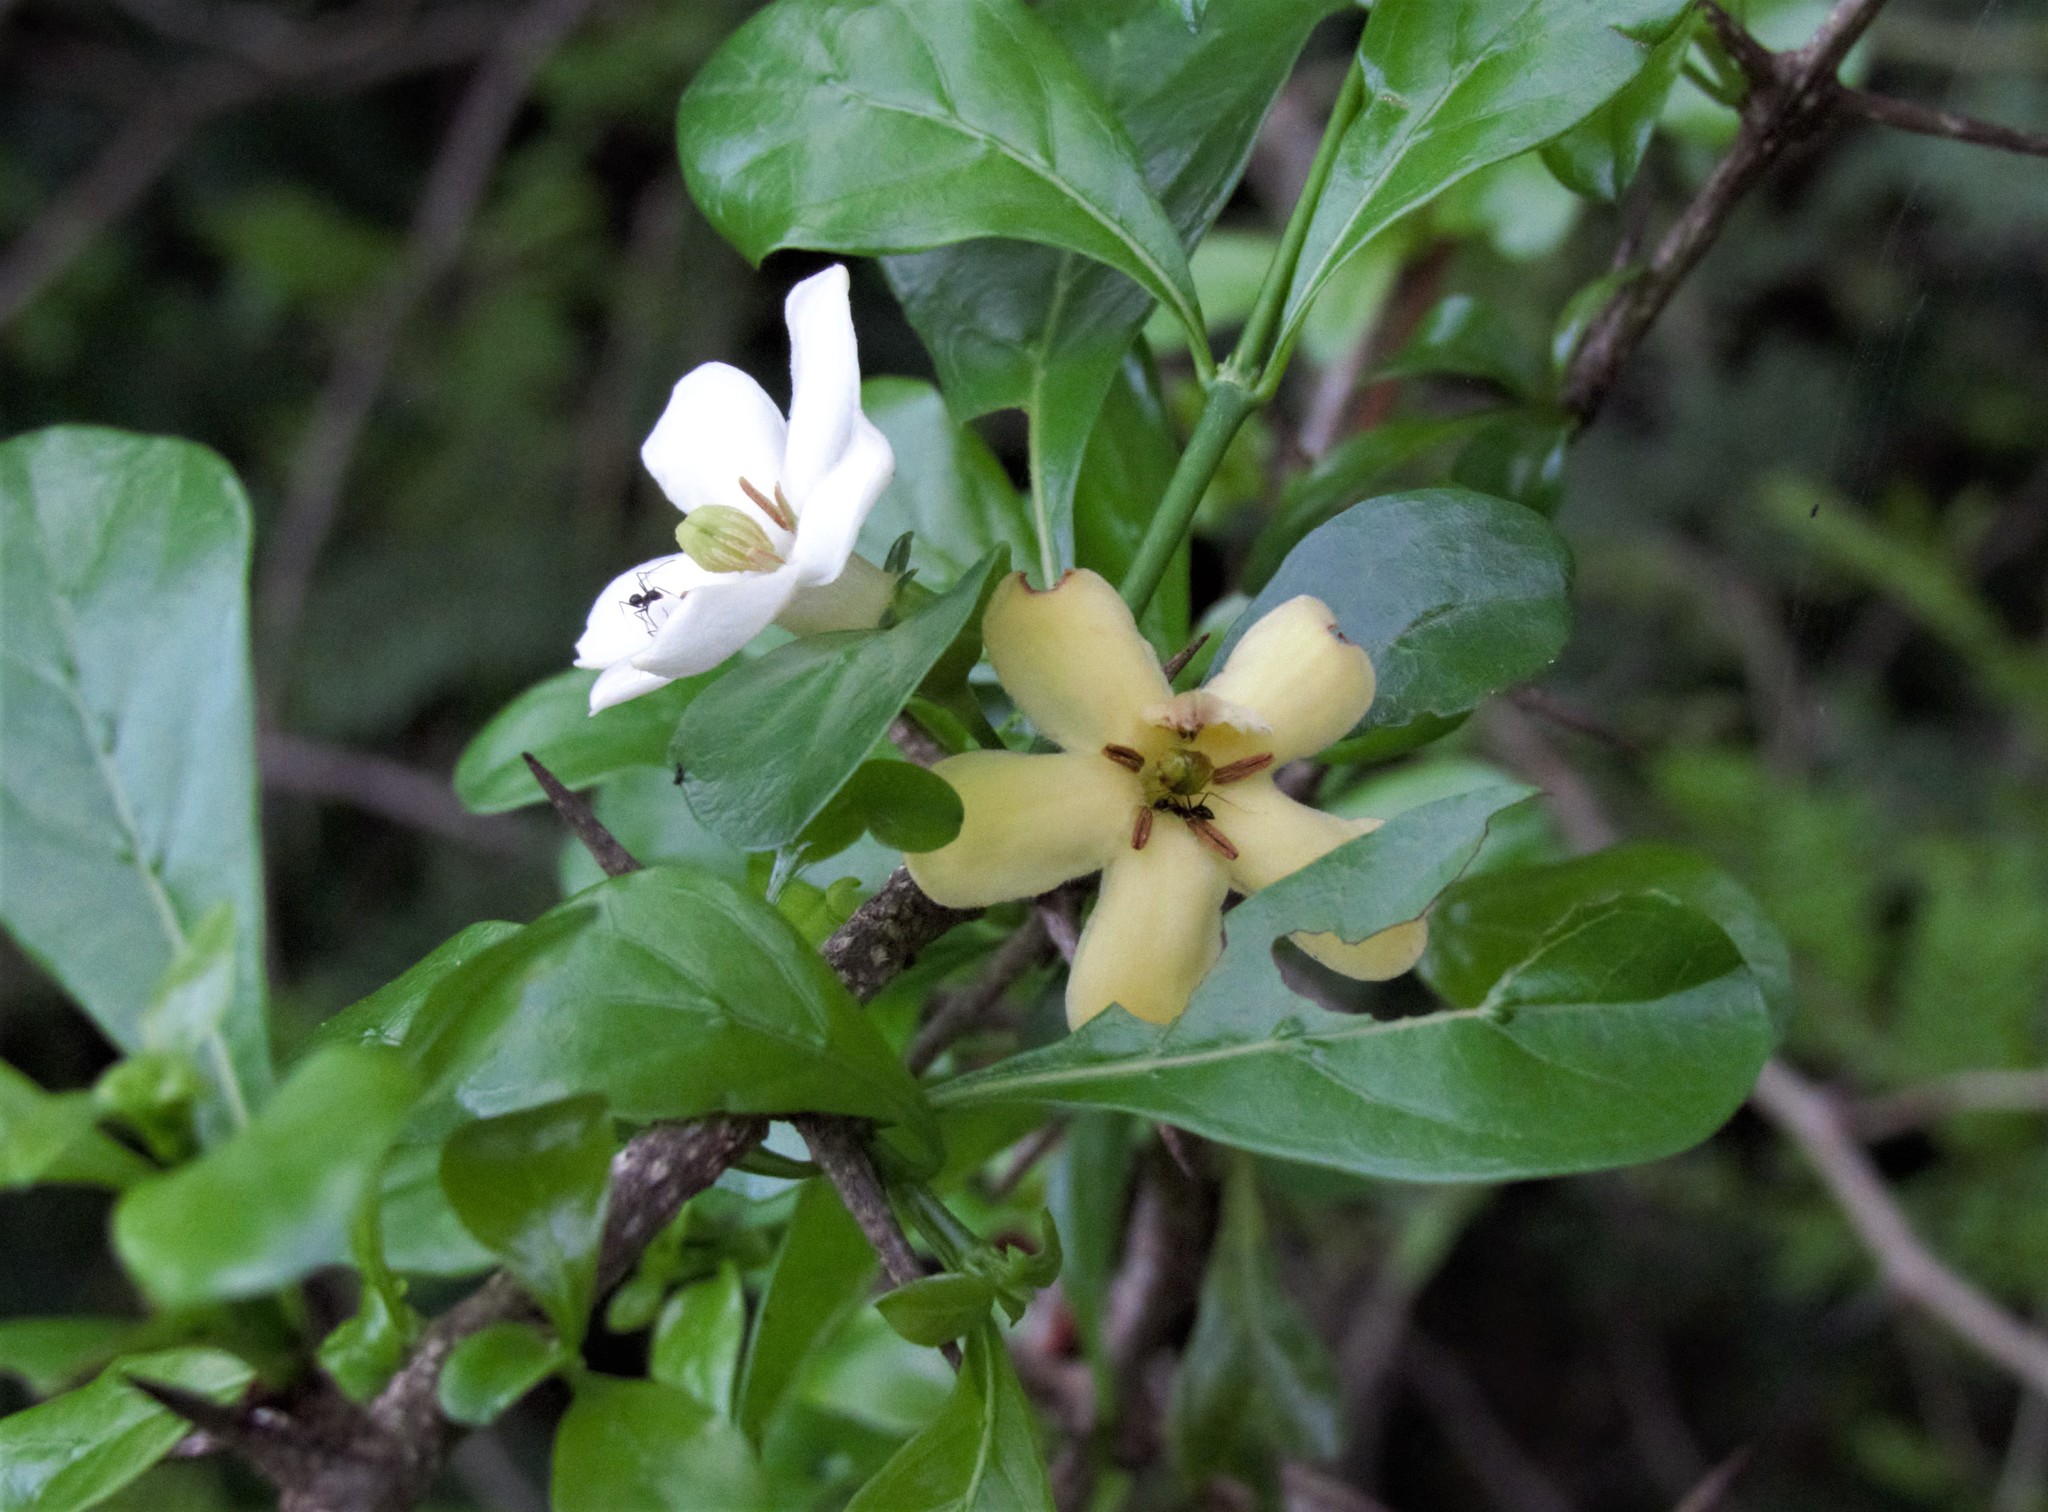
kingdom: Plantae
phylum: Tracheophyta
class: Magnoliopsida
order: Gentianales
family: Rubiaceae
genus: Catunaregam
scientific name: Catunaregam spinosa
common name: Emetic-nut
